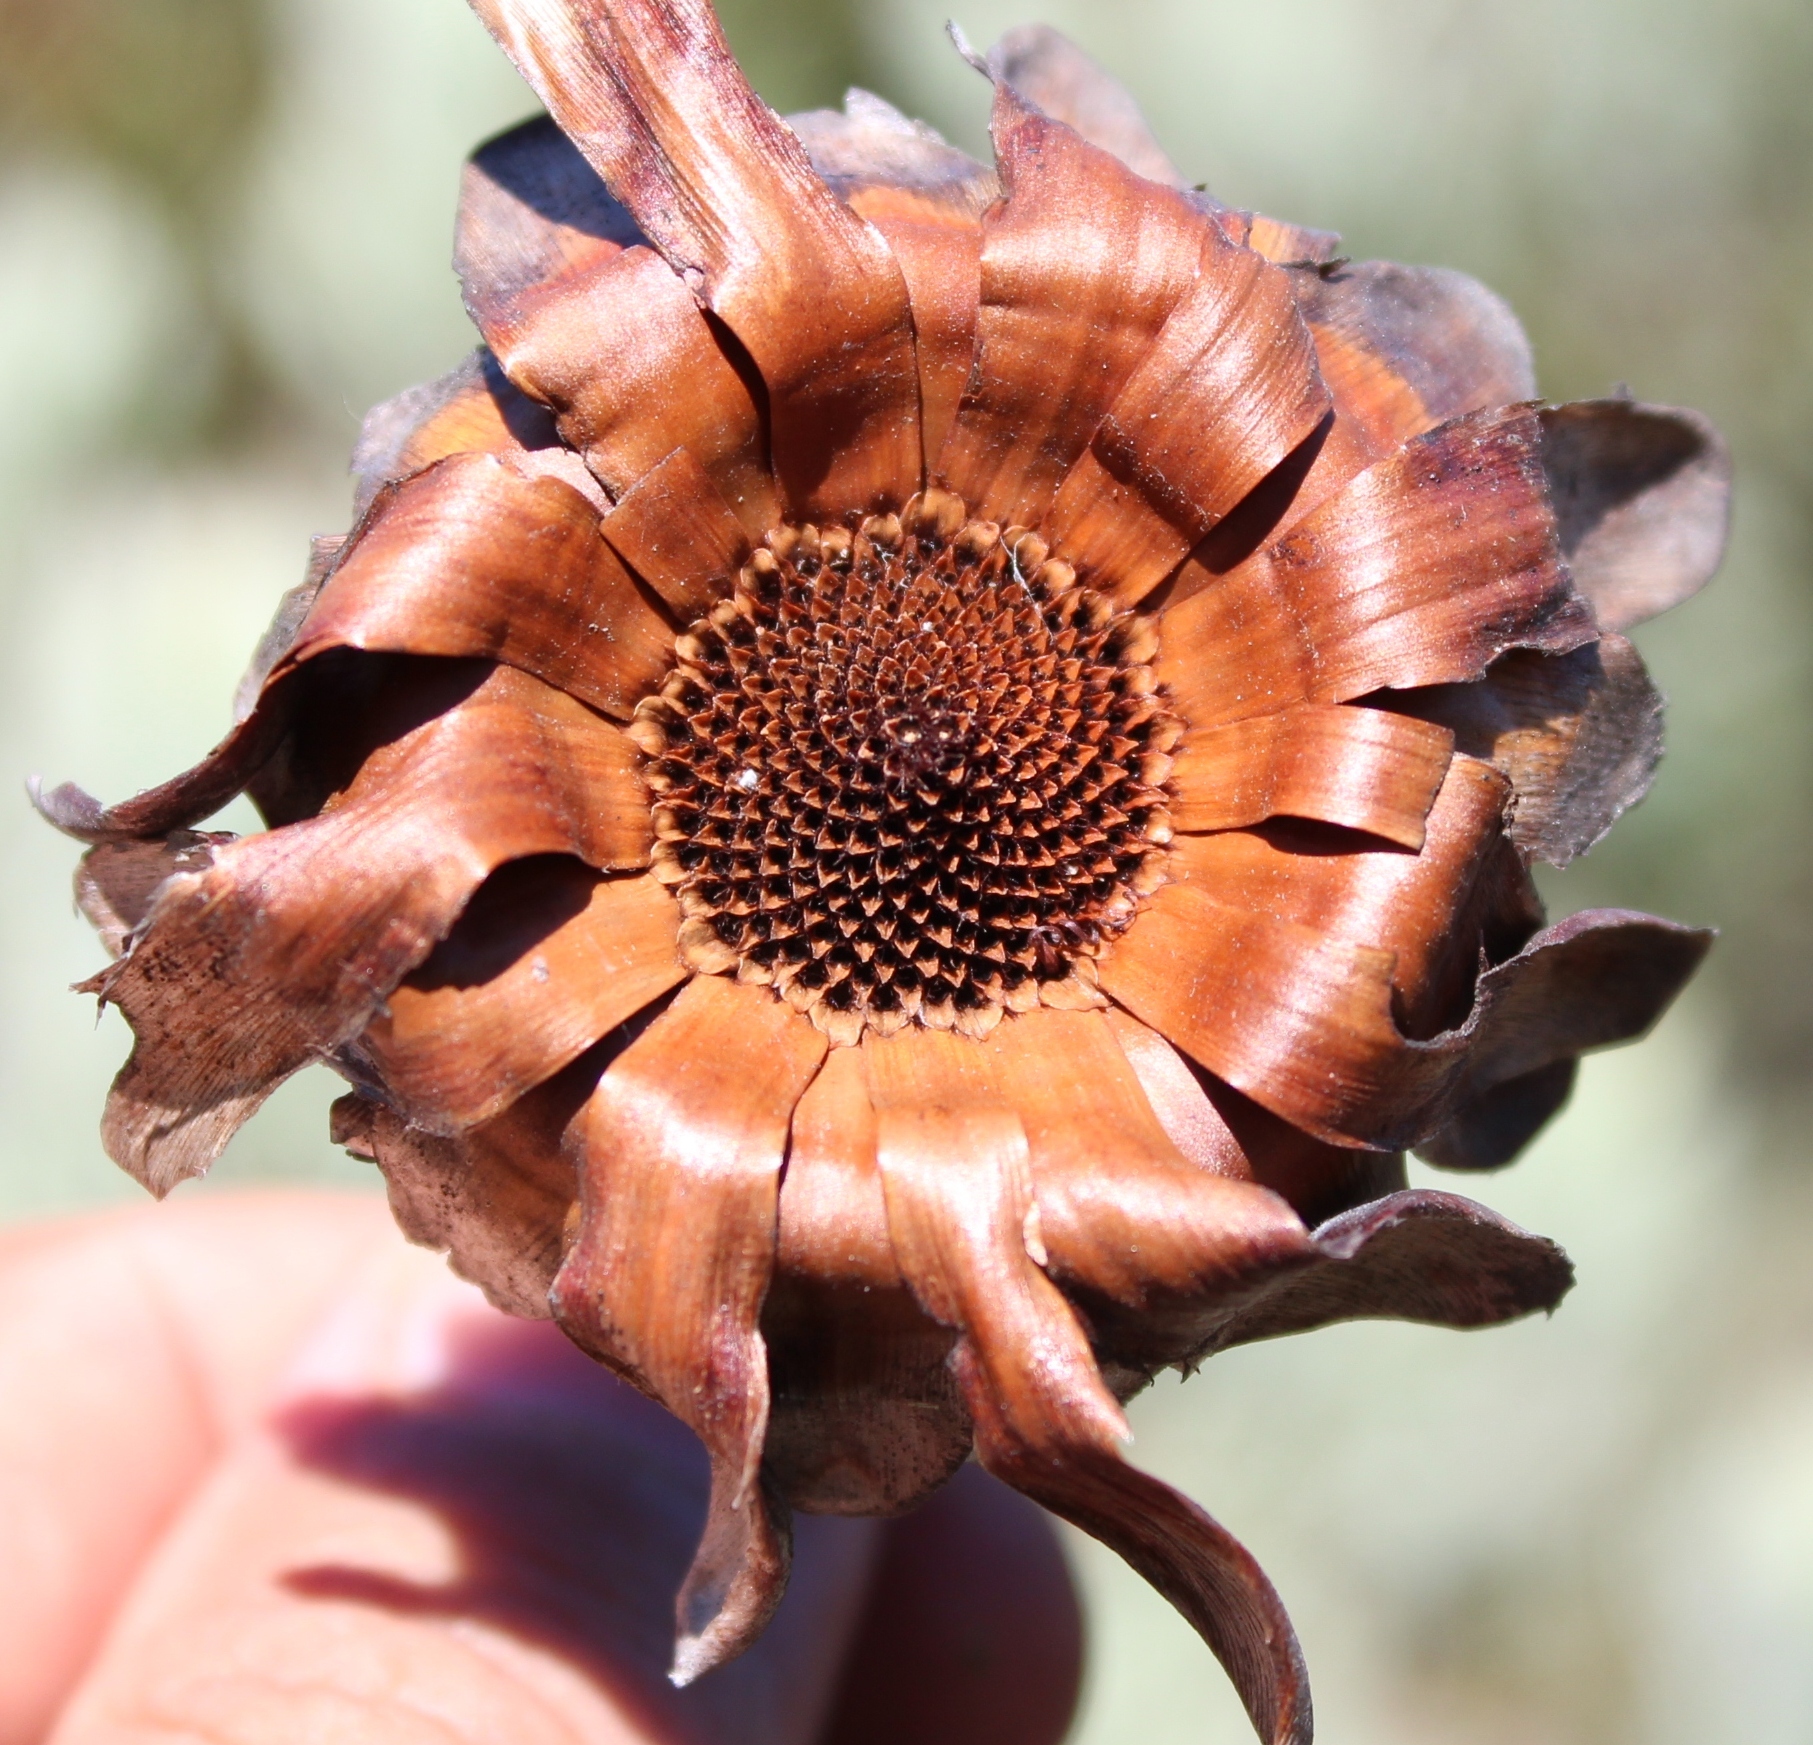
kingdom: Plantae
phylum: Tracheophyta
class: Magnoliopsida
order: Proteales
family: Proteaceae
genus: Protea
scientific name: Protea pendula
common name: Nodding sugarbush
